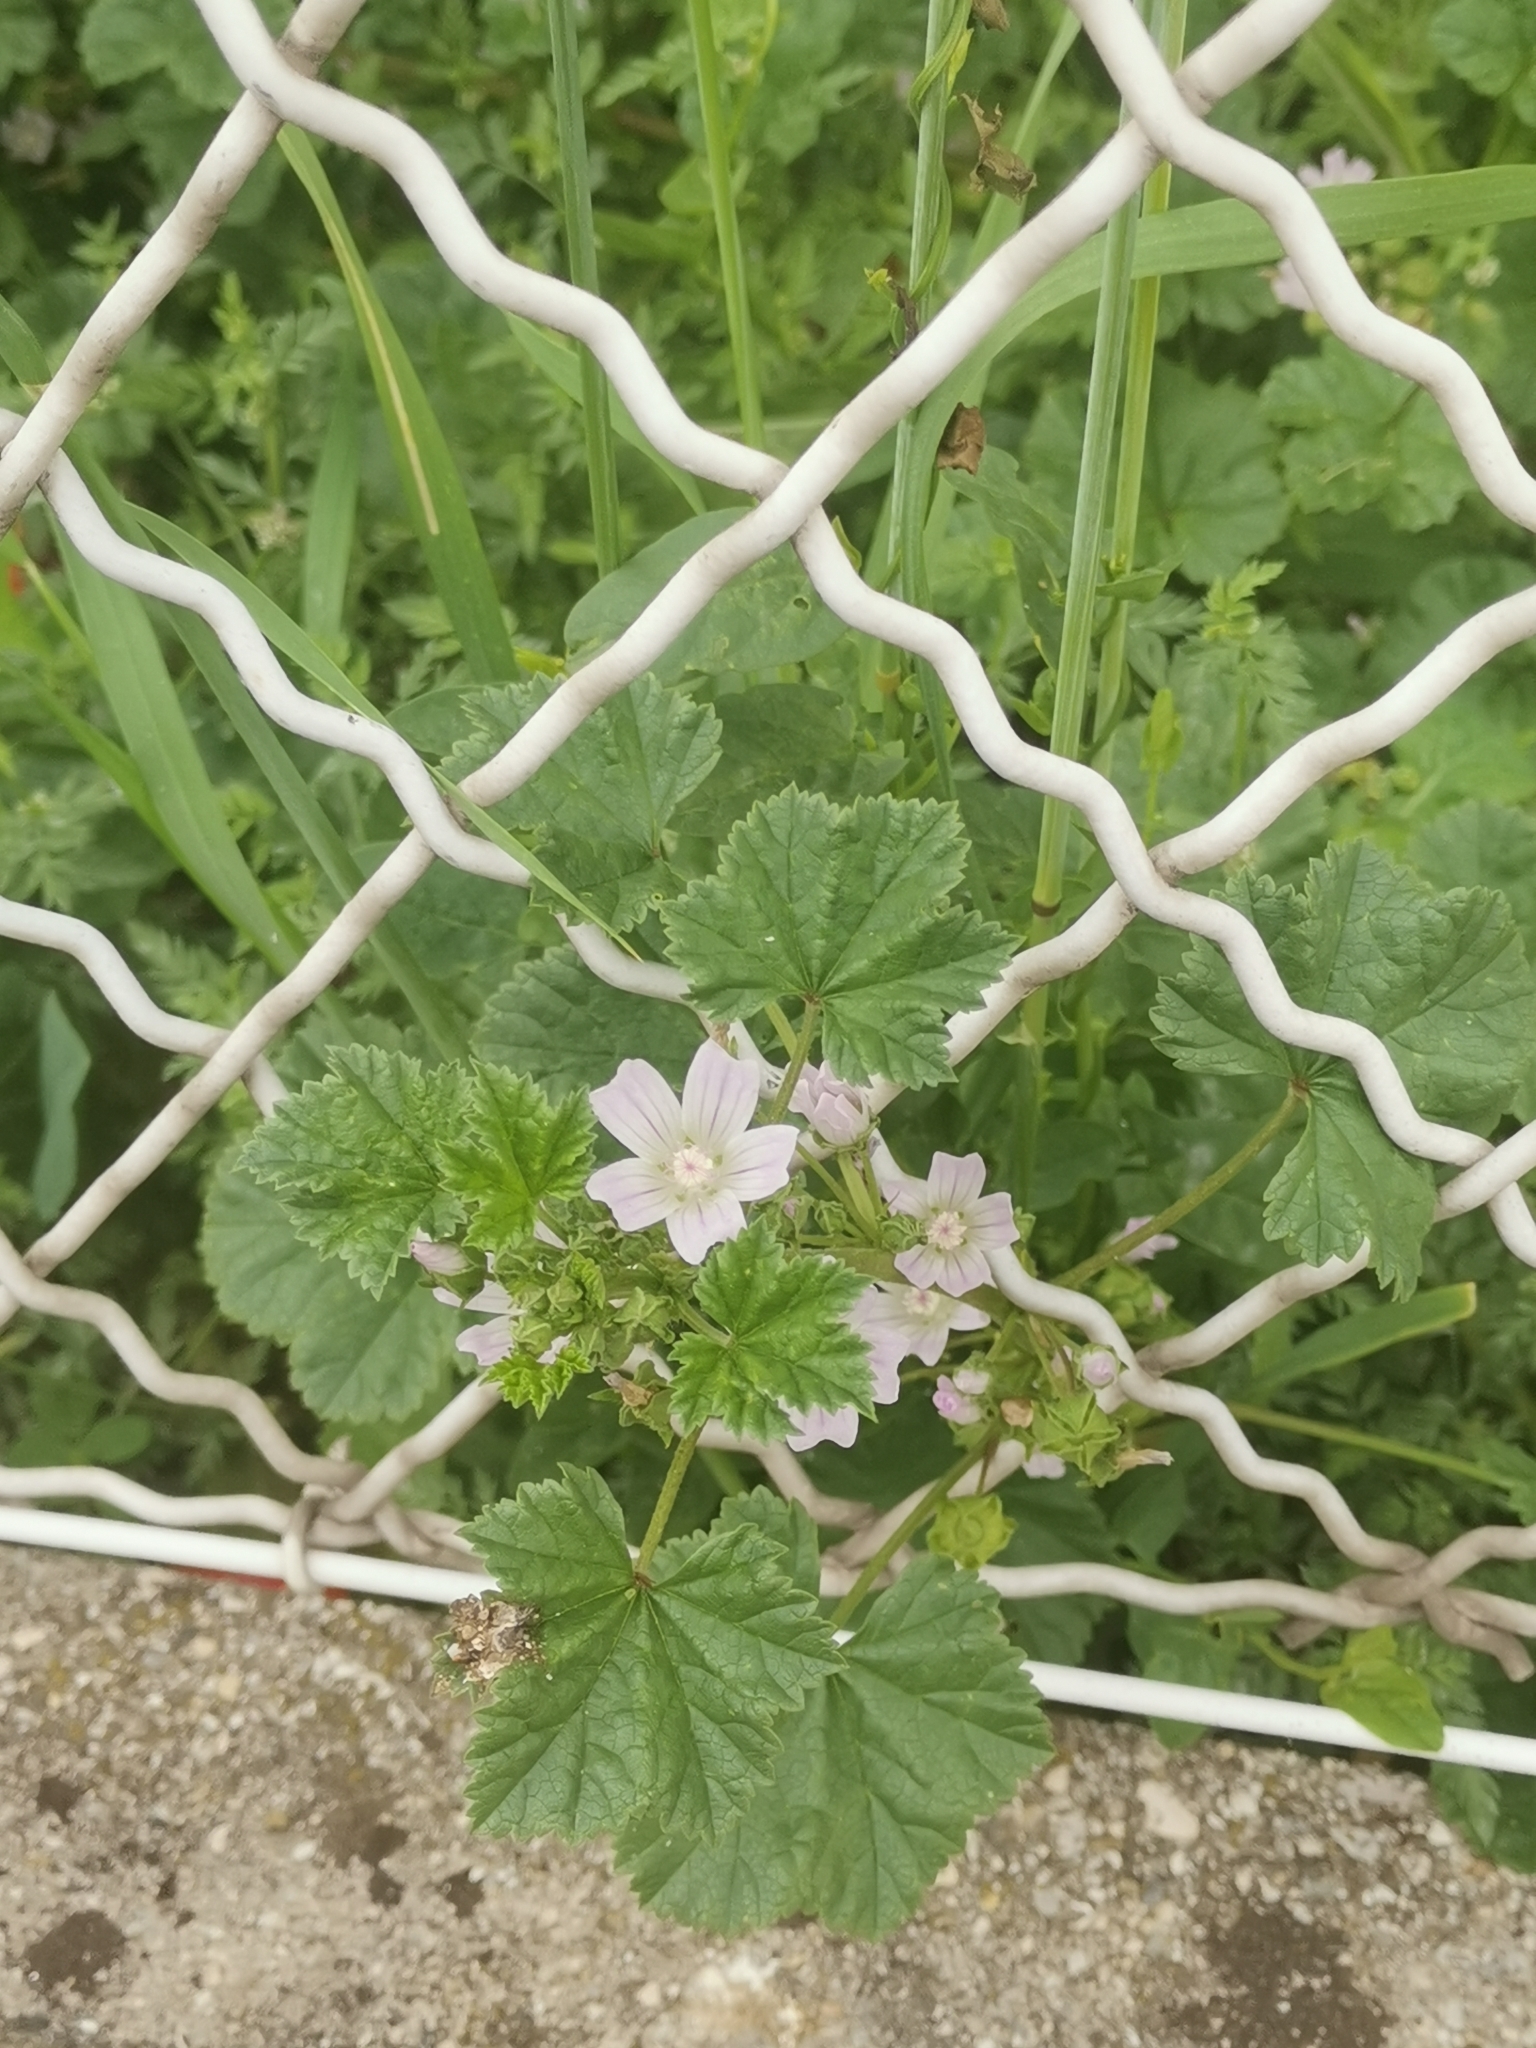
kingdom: Plantae
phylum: Tracheophyta
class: Magnoliopsida
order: Malvales
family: Malvaceae
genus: Malva
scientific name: Malva neglecta
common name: Common mallow
